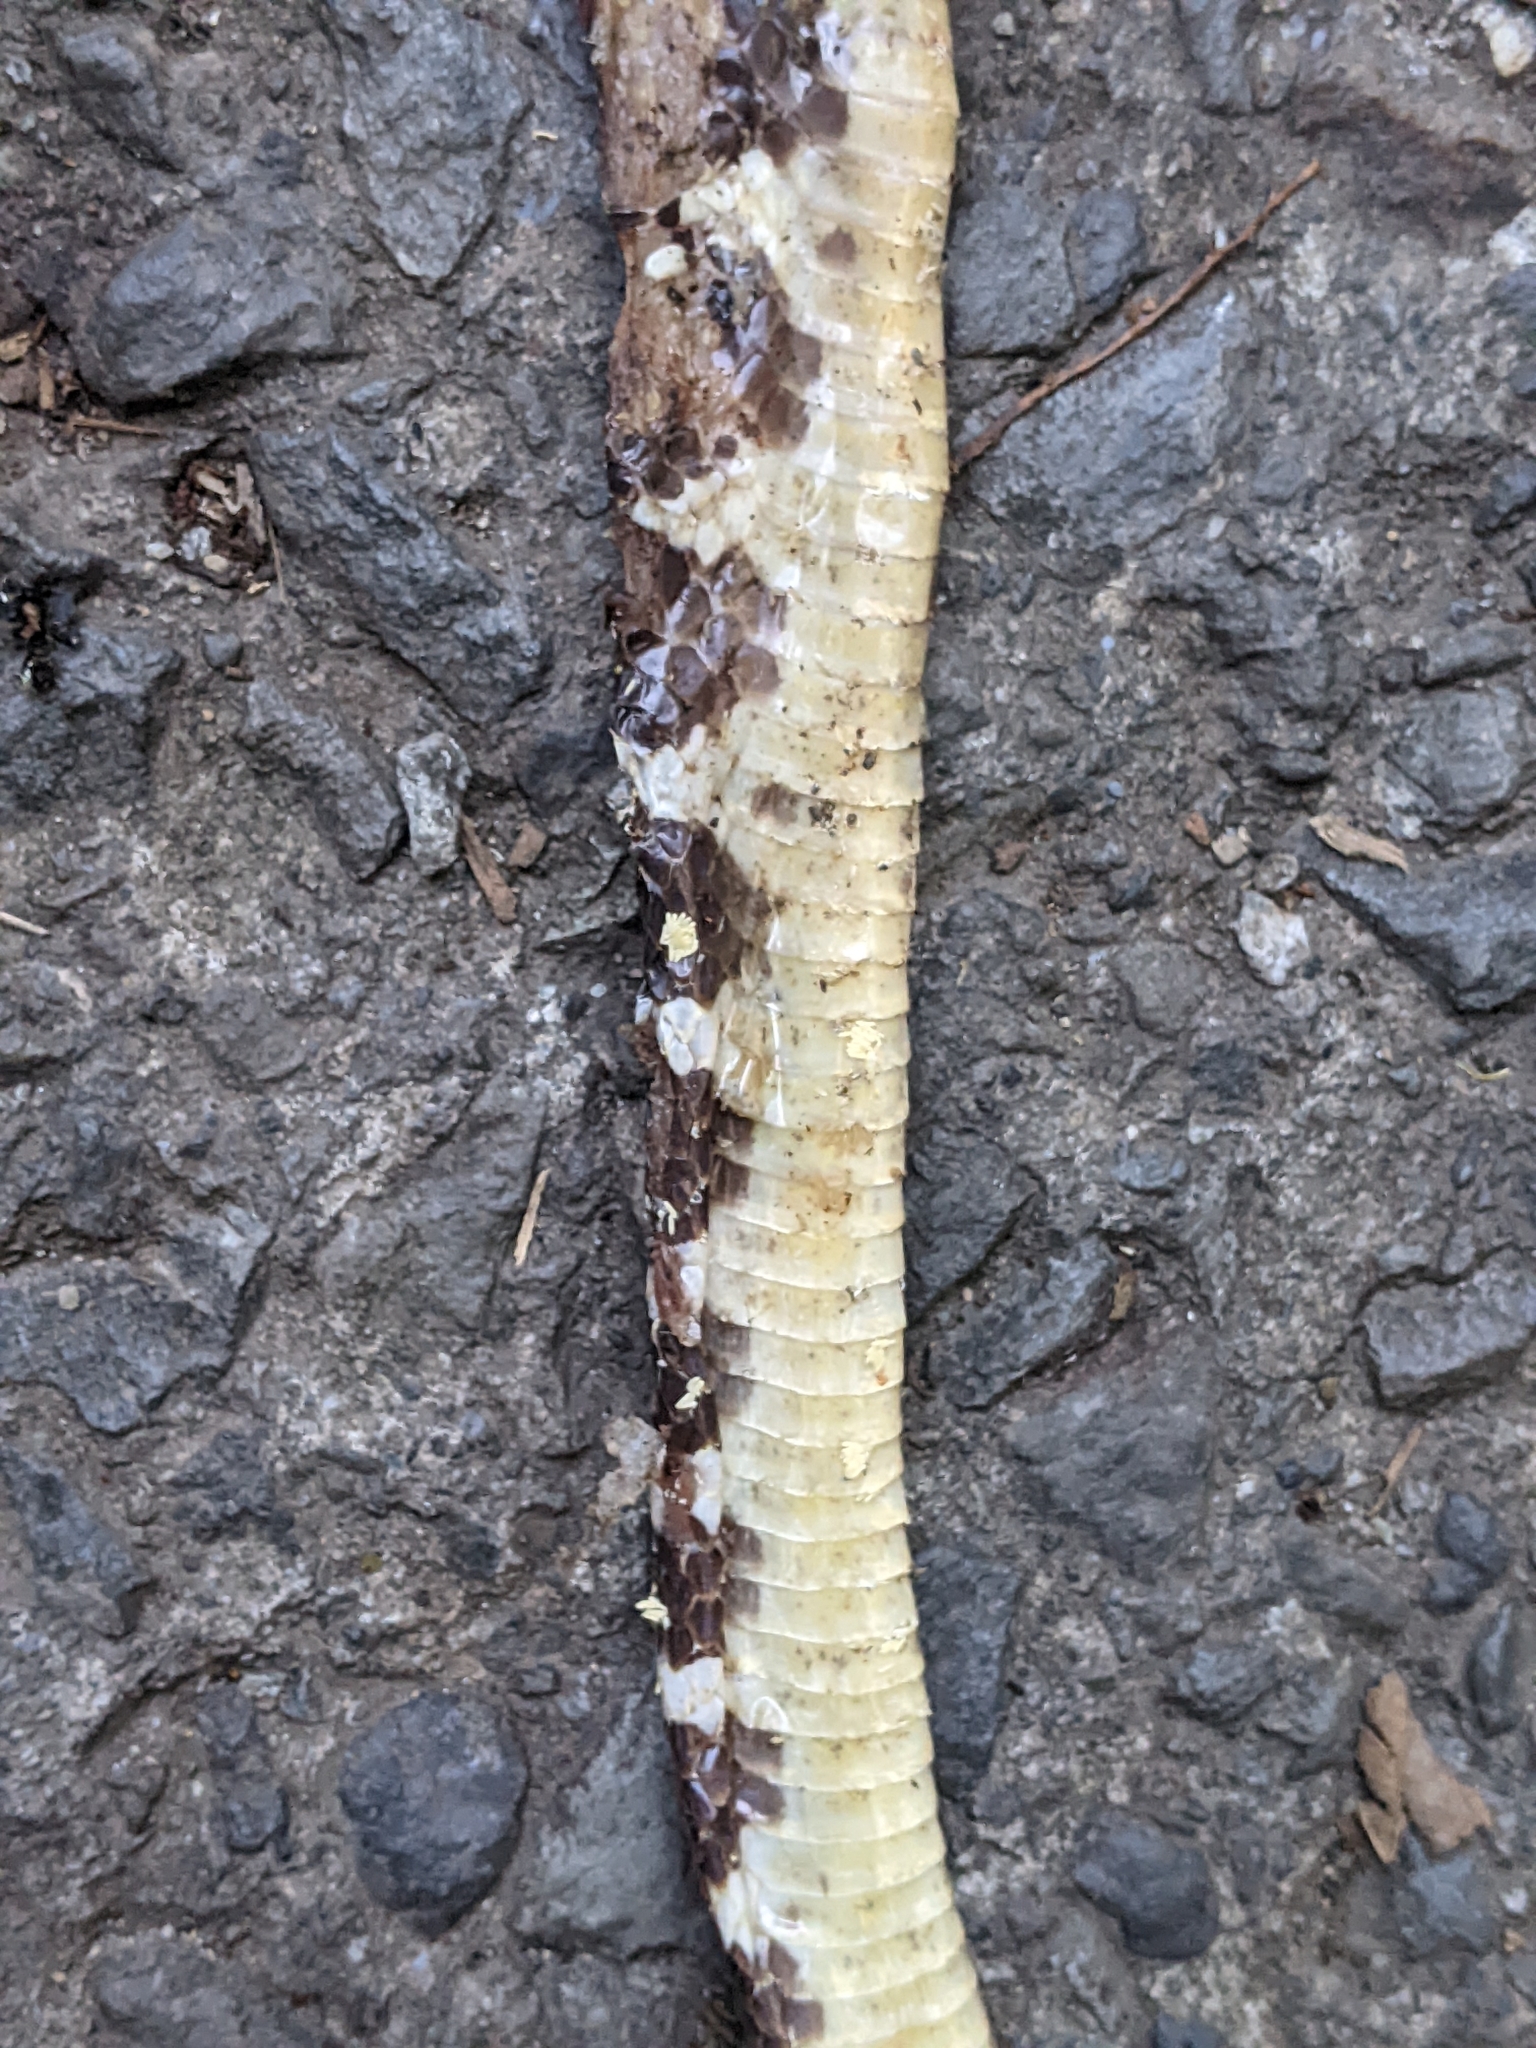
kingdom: Animalia
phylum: Chordata
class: Squamata
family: Elapidae
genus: Bungarus
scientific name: Bungarus multicinctus
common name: Many-banded krait
